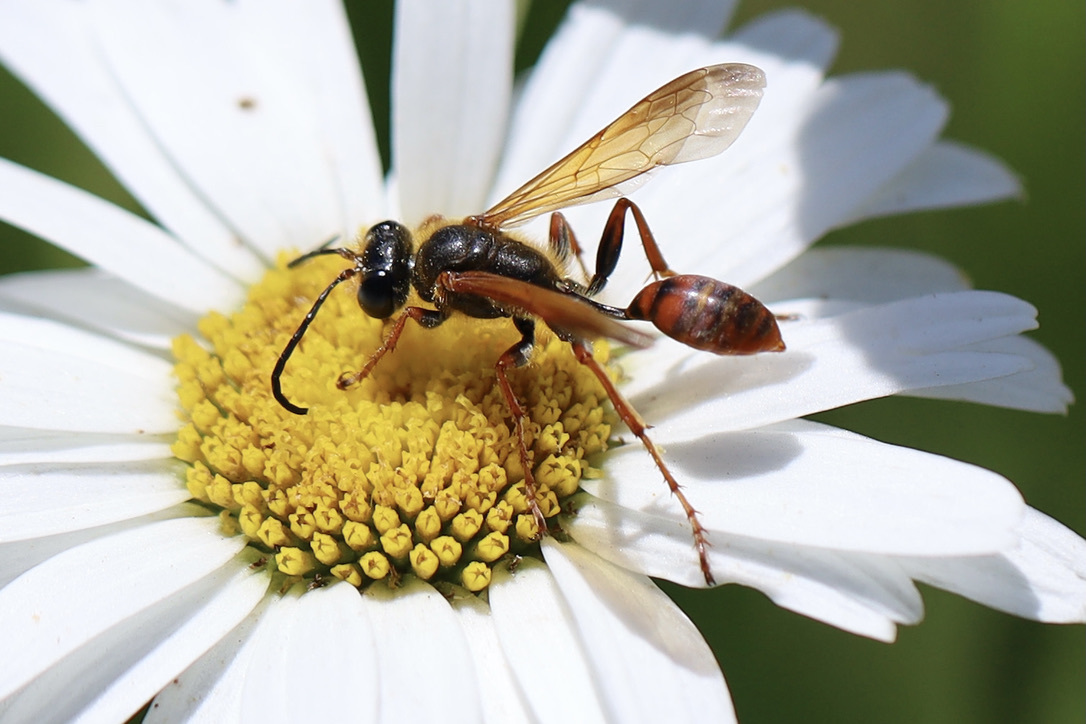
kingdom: Animalia
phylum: Arthropoda
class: Insecta
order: Hymenoptera
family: Sphecidae
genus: Isodontia
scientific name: Isodontia elegans
